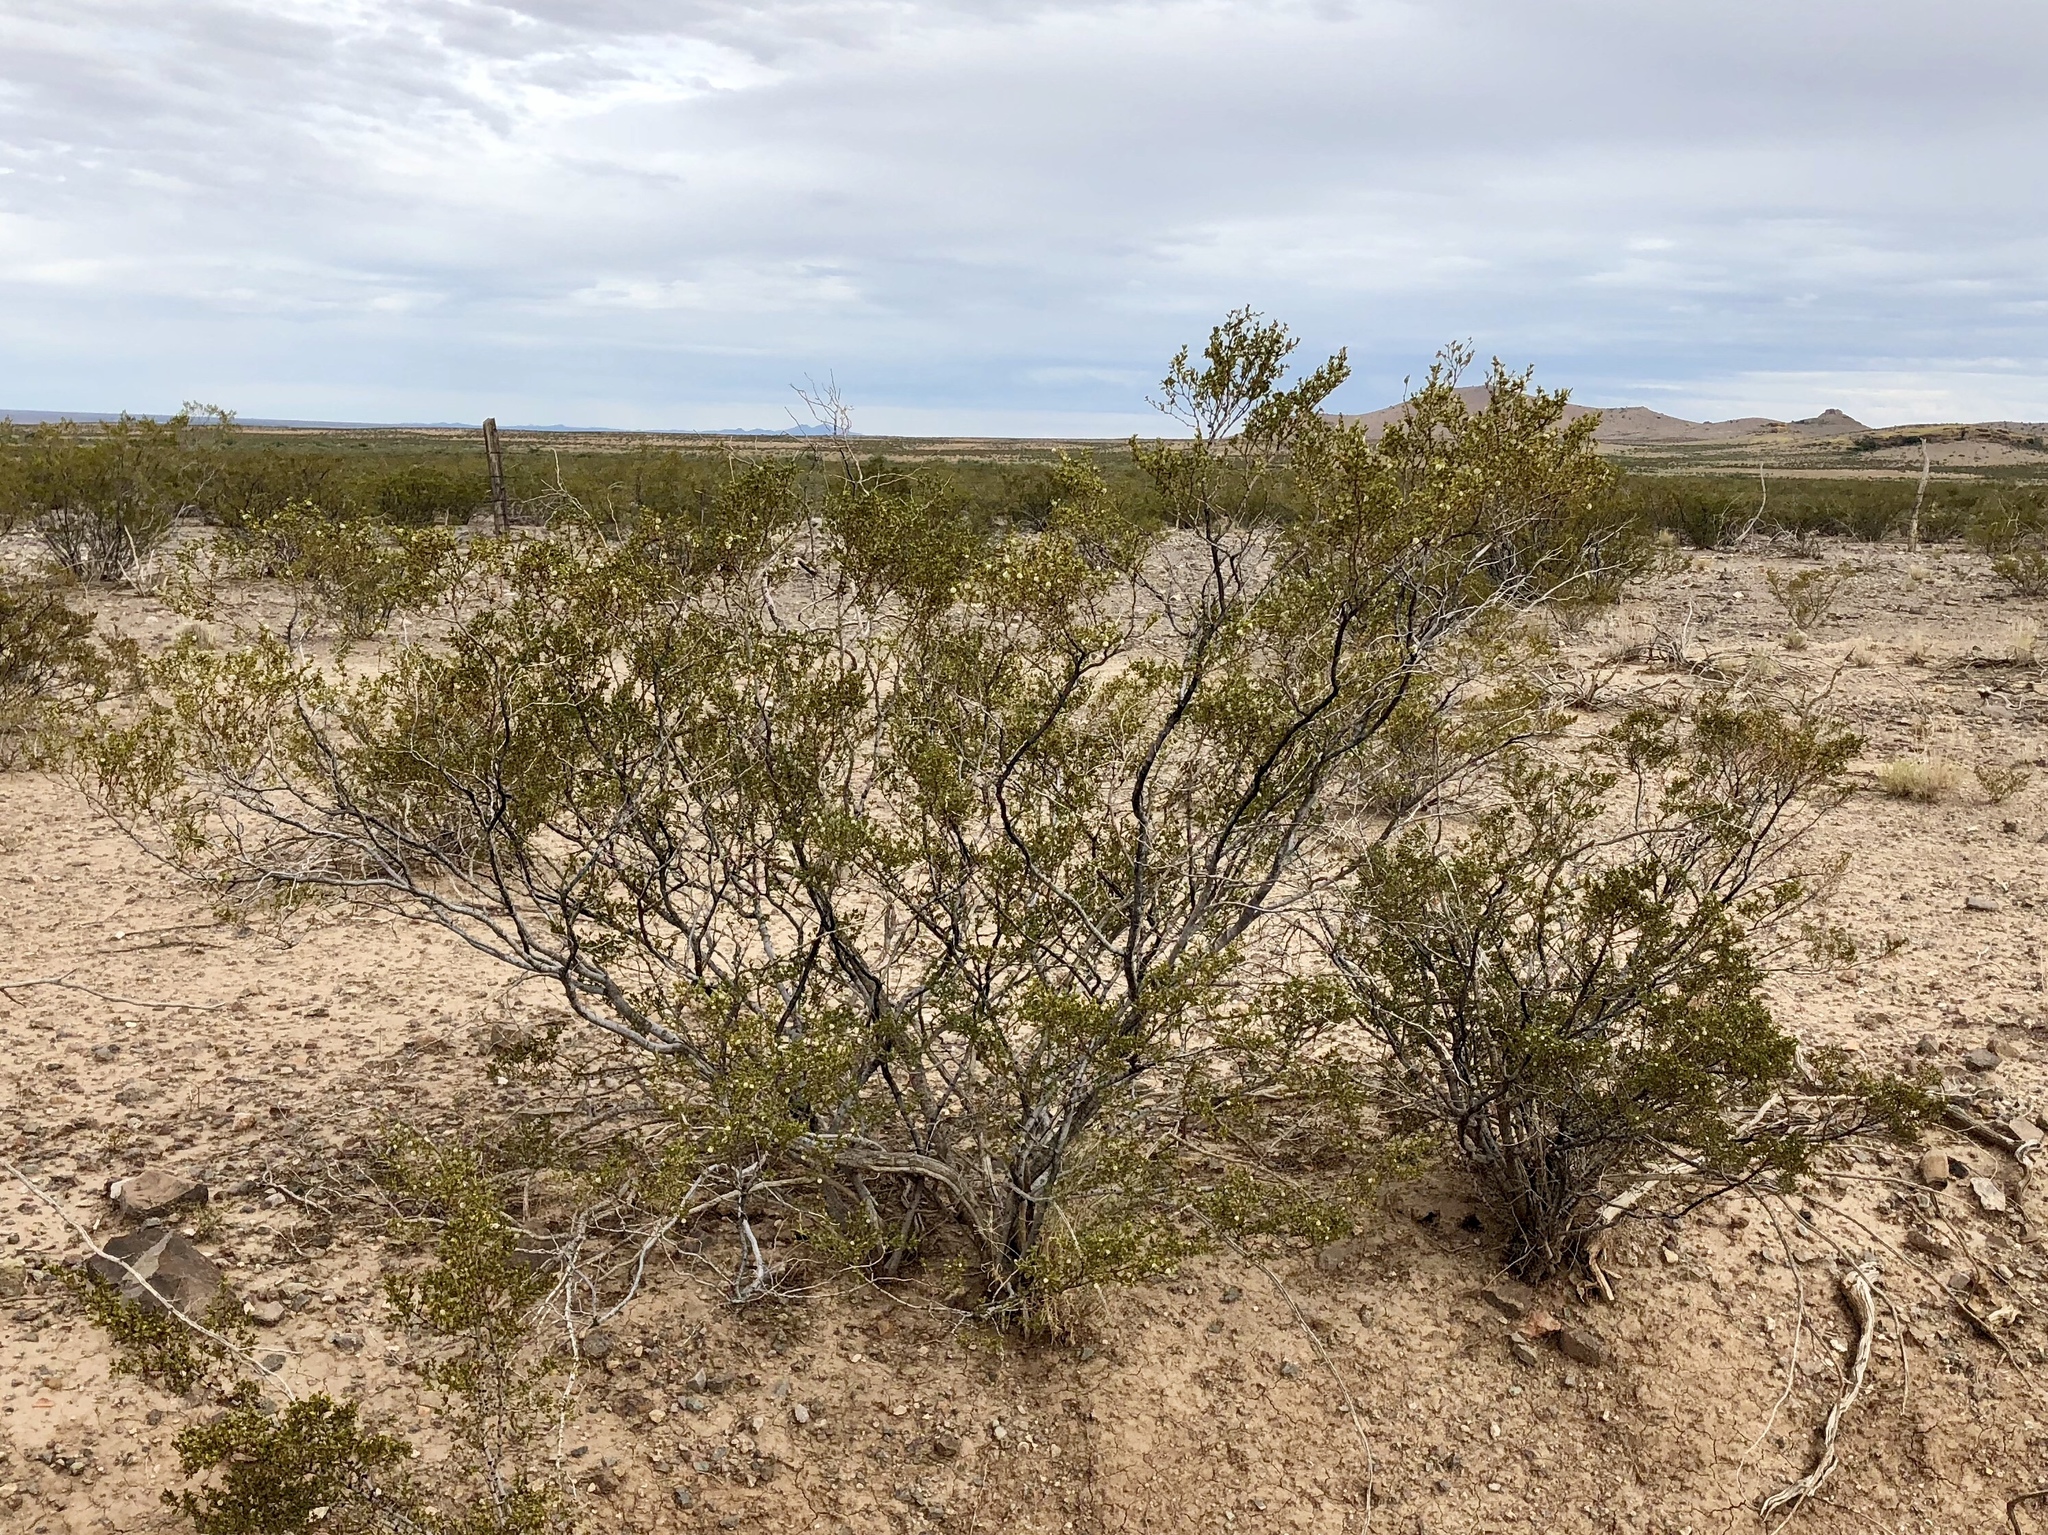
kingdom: Plantae
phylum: Tracheophyta
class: Magnoliopsida
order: Zygophyllales
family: Zygophyllaceae
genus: Larrea
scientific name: Larrea tridentata
